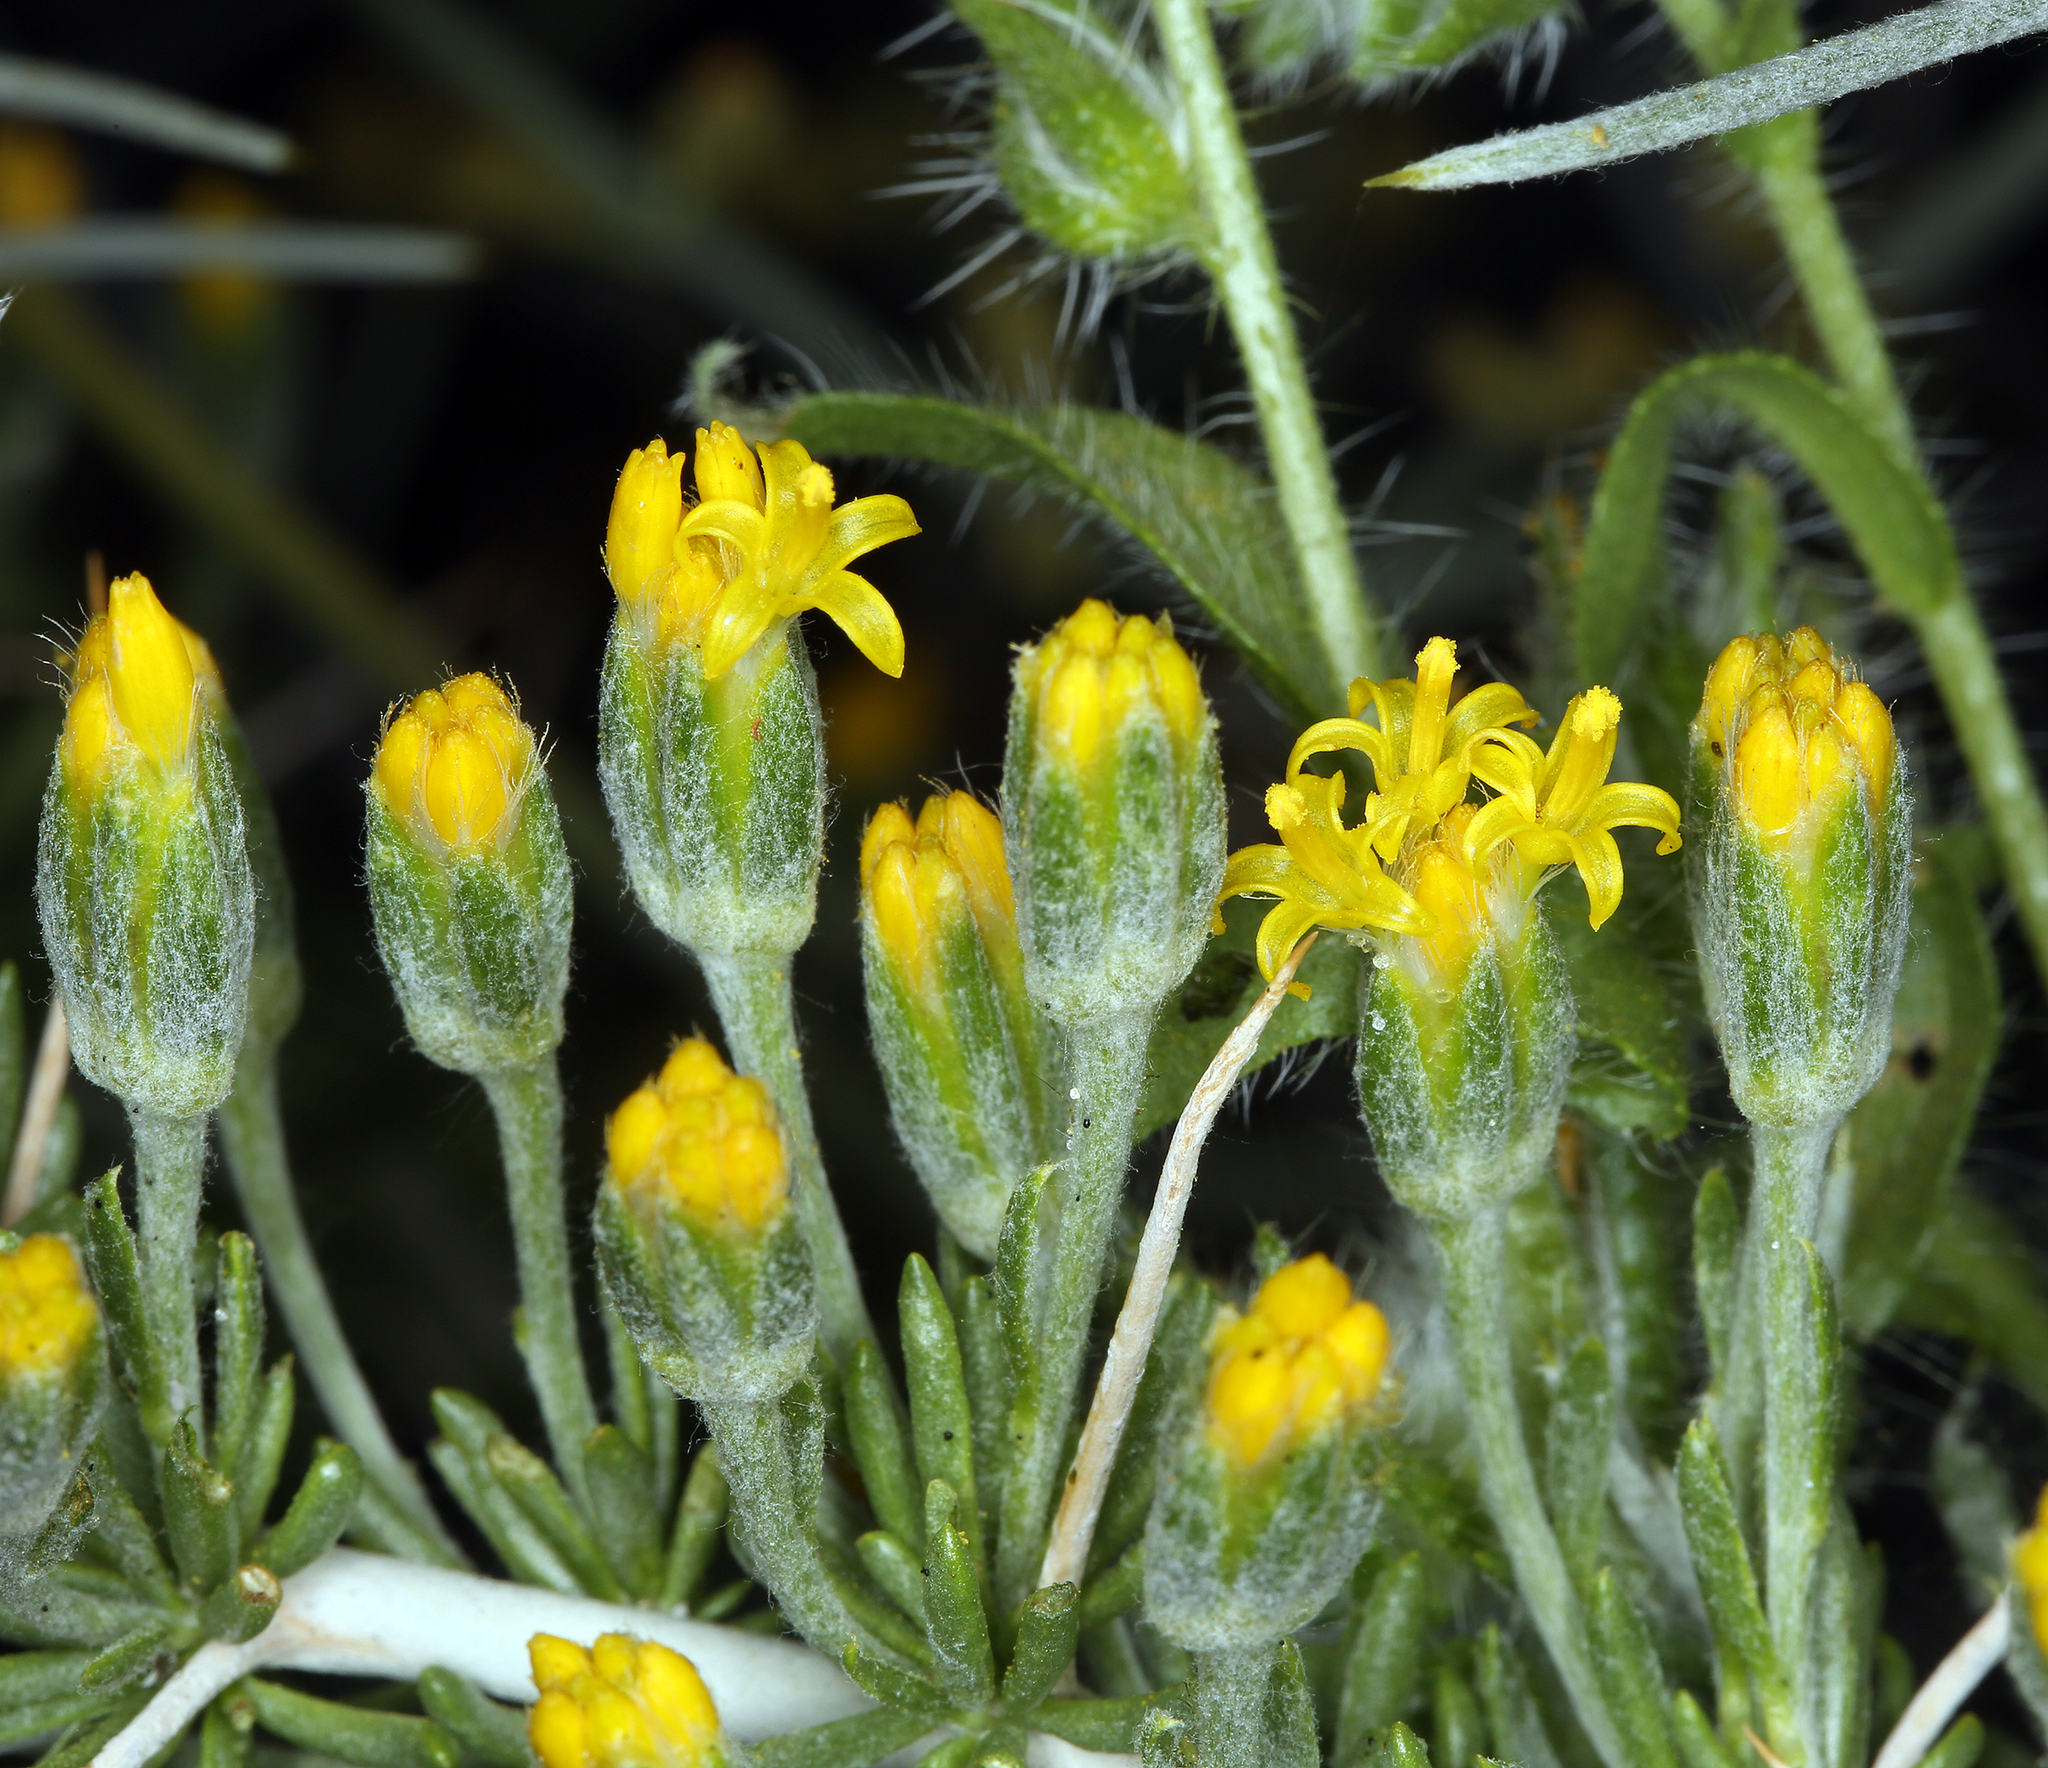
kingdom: Plantae
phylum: Tracheophyta
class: Magnoliopsida
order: Asterales
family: Asteraceae
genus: Tetradymia
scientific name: Tetradymia axillaris
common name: Long-spine horsebrush
